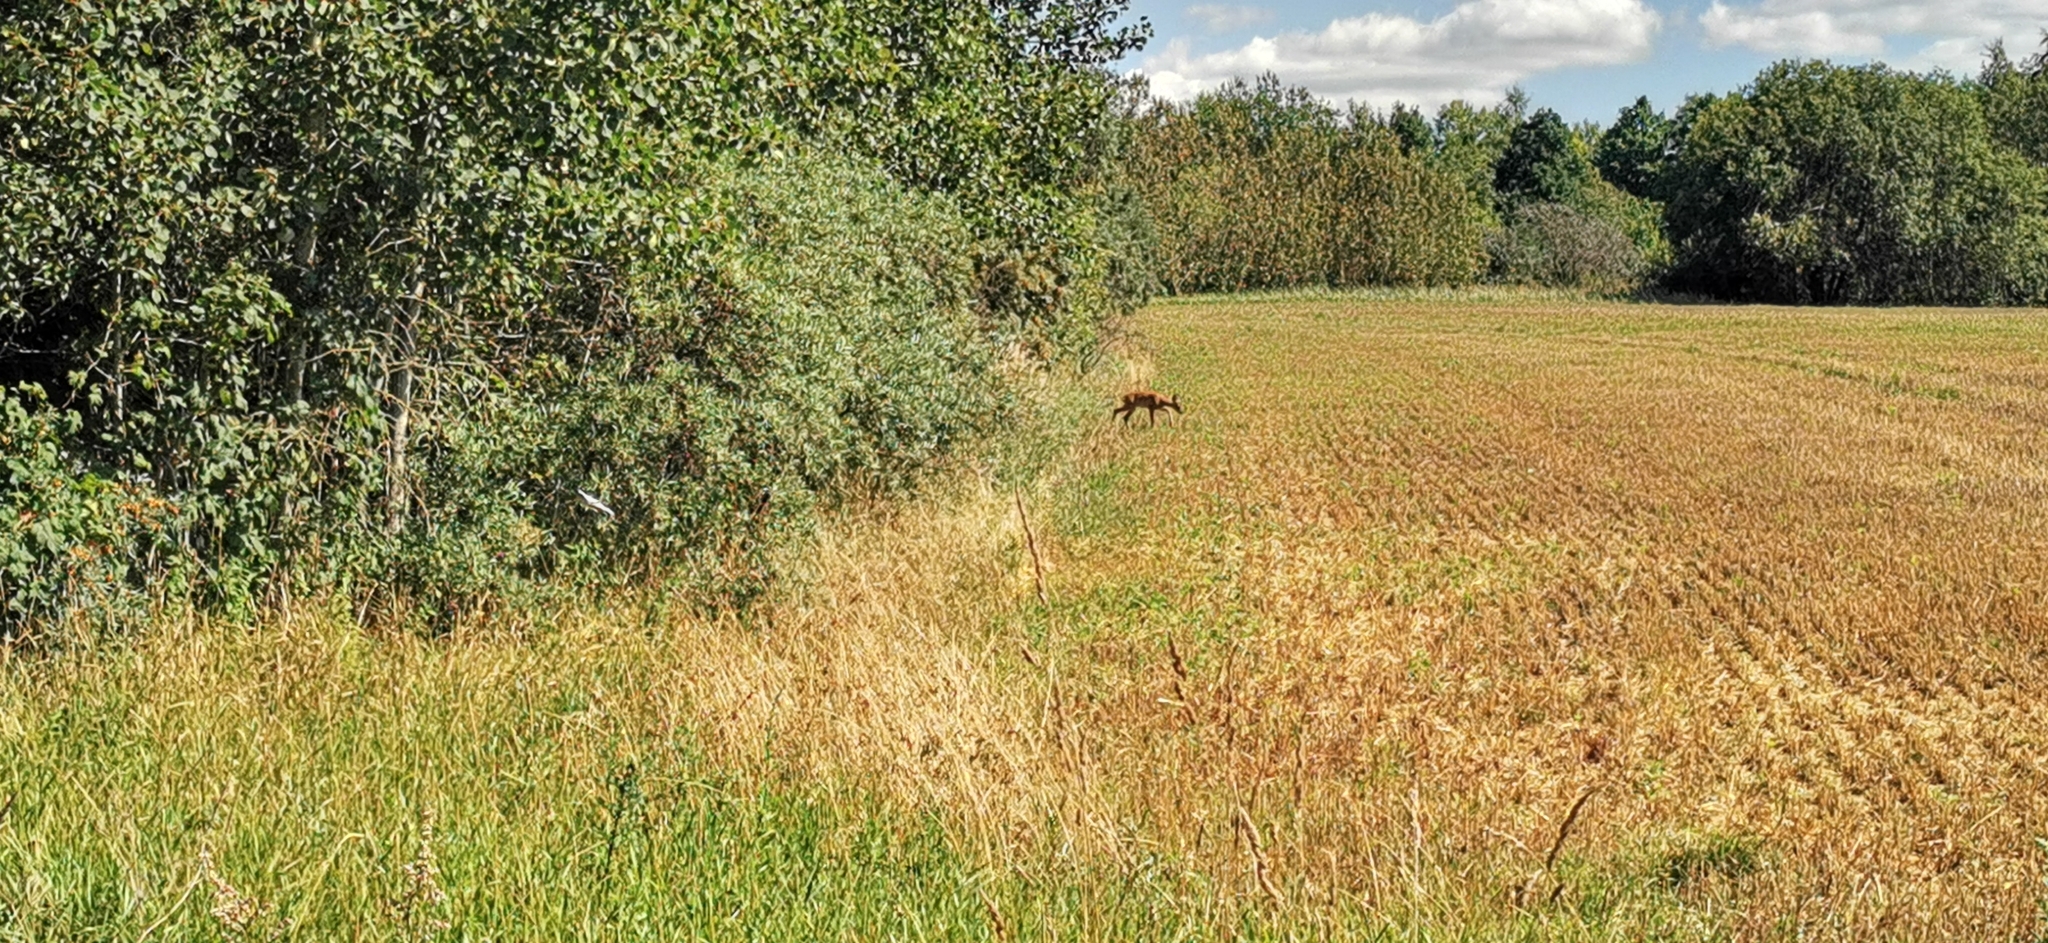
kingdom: Animalia
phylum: Chordata
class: Mammalia
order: Artiodactyla
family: Cervidae
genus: Capreolus
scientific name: Capreolus capreolus
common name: Western roe deer
